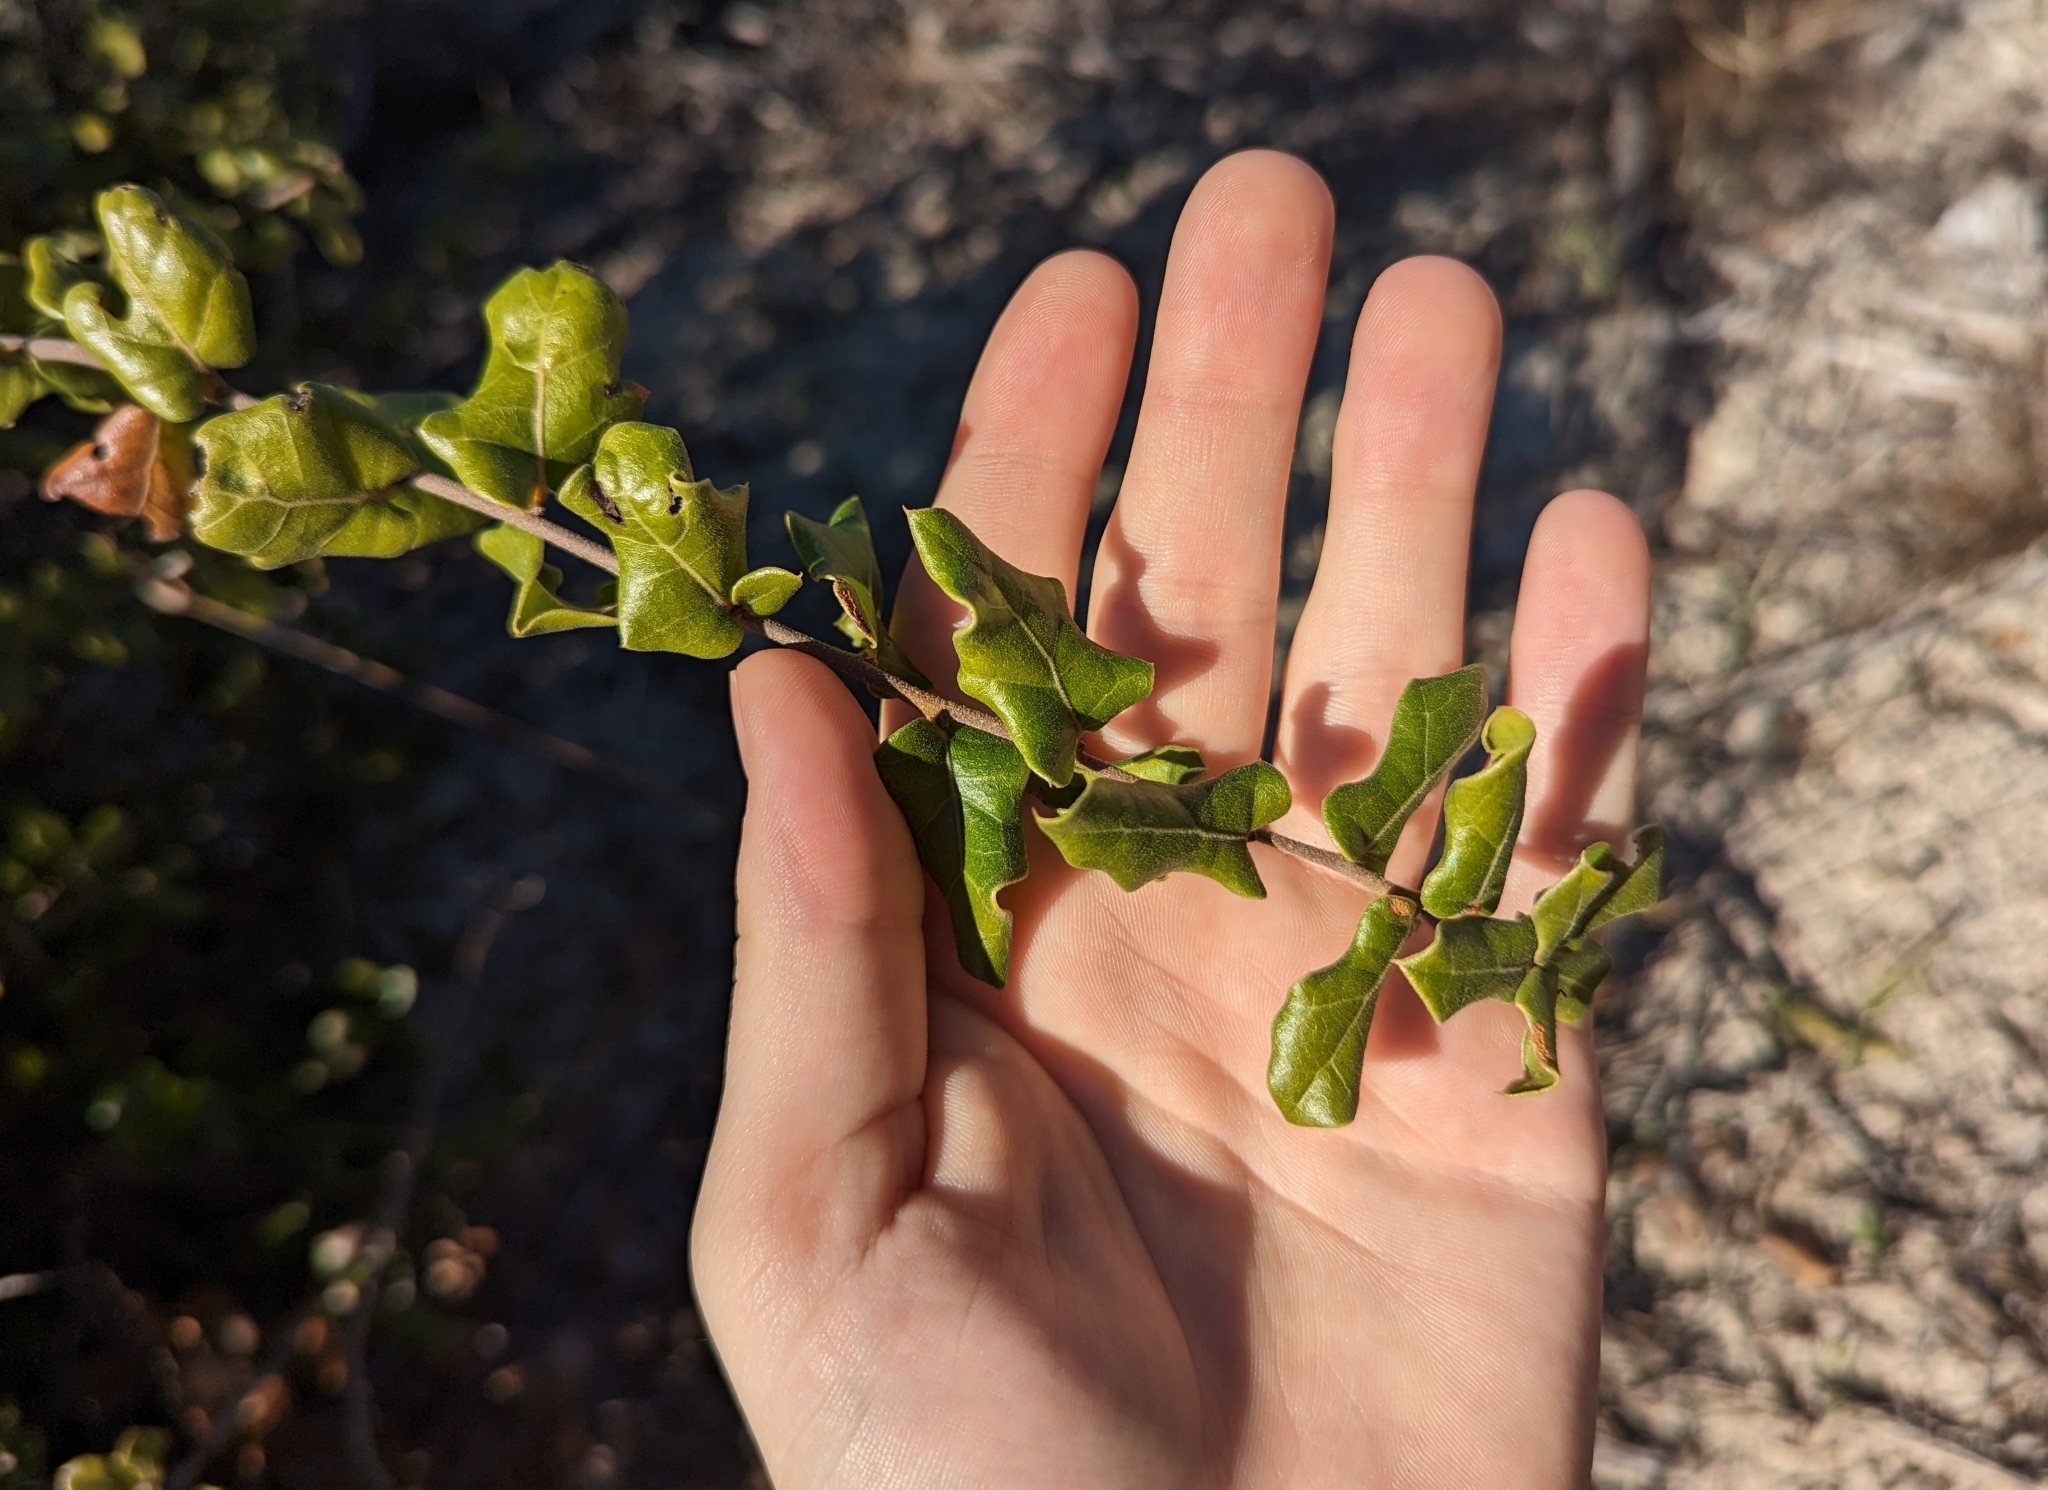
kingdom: Plantae
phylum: Tracheophyta
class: Magnoliopsida
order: Fagales
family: Fagaceae
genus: Quercus
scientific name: Quercus myrtifolia
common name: Myrtle oak
